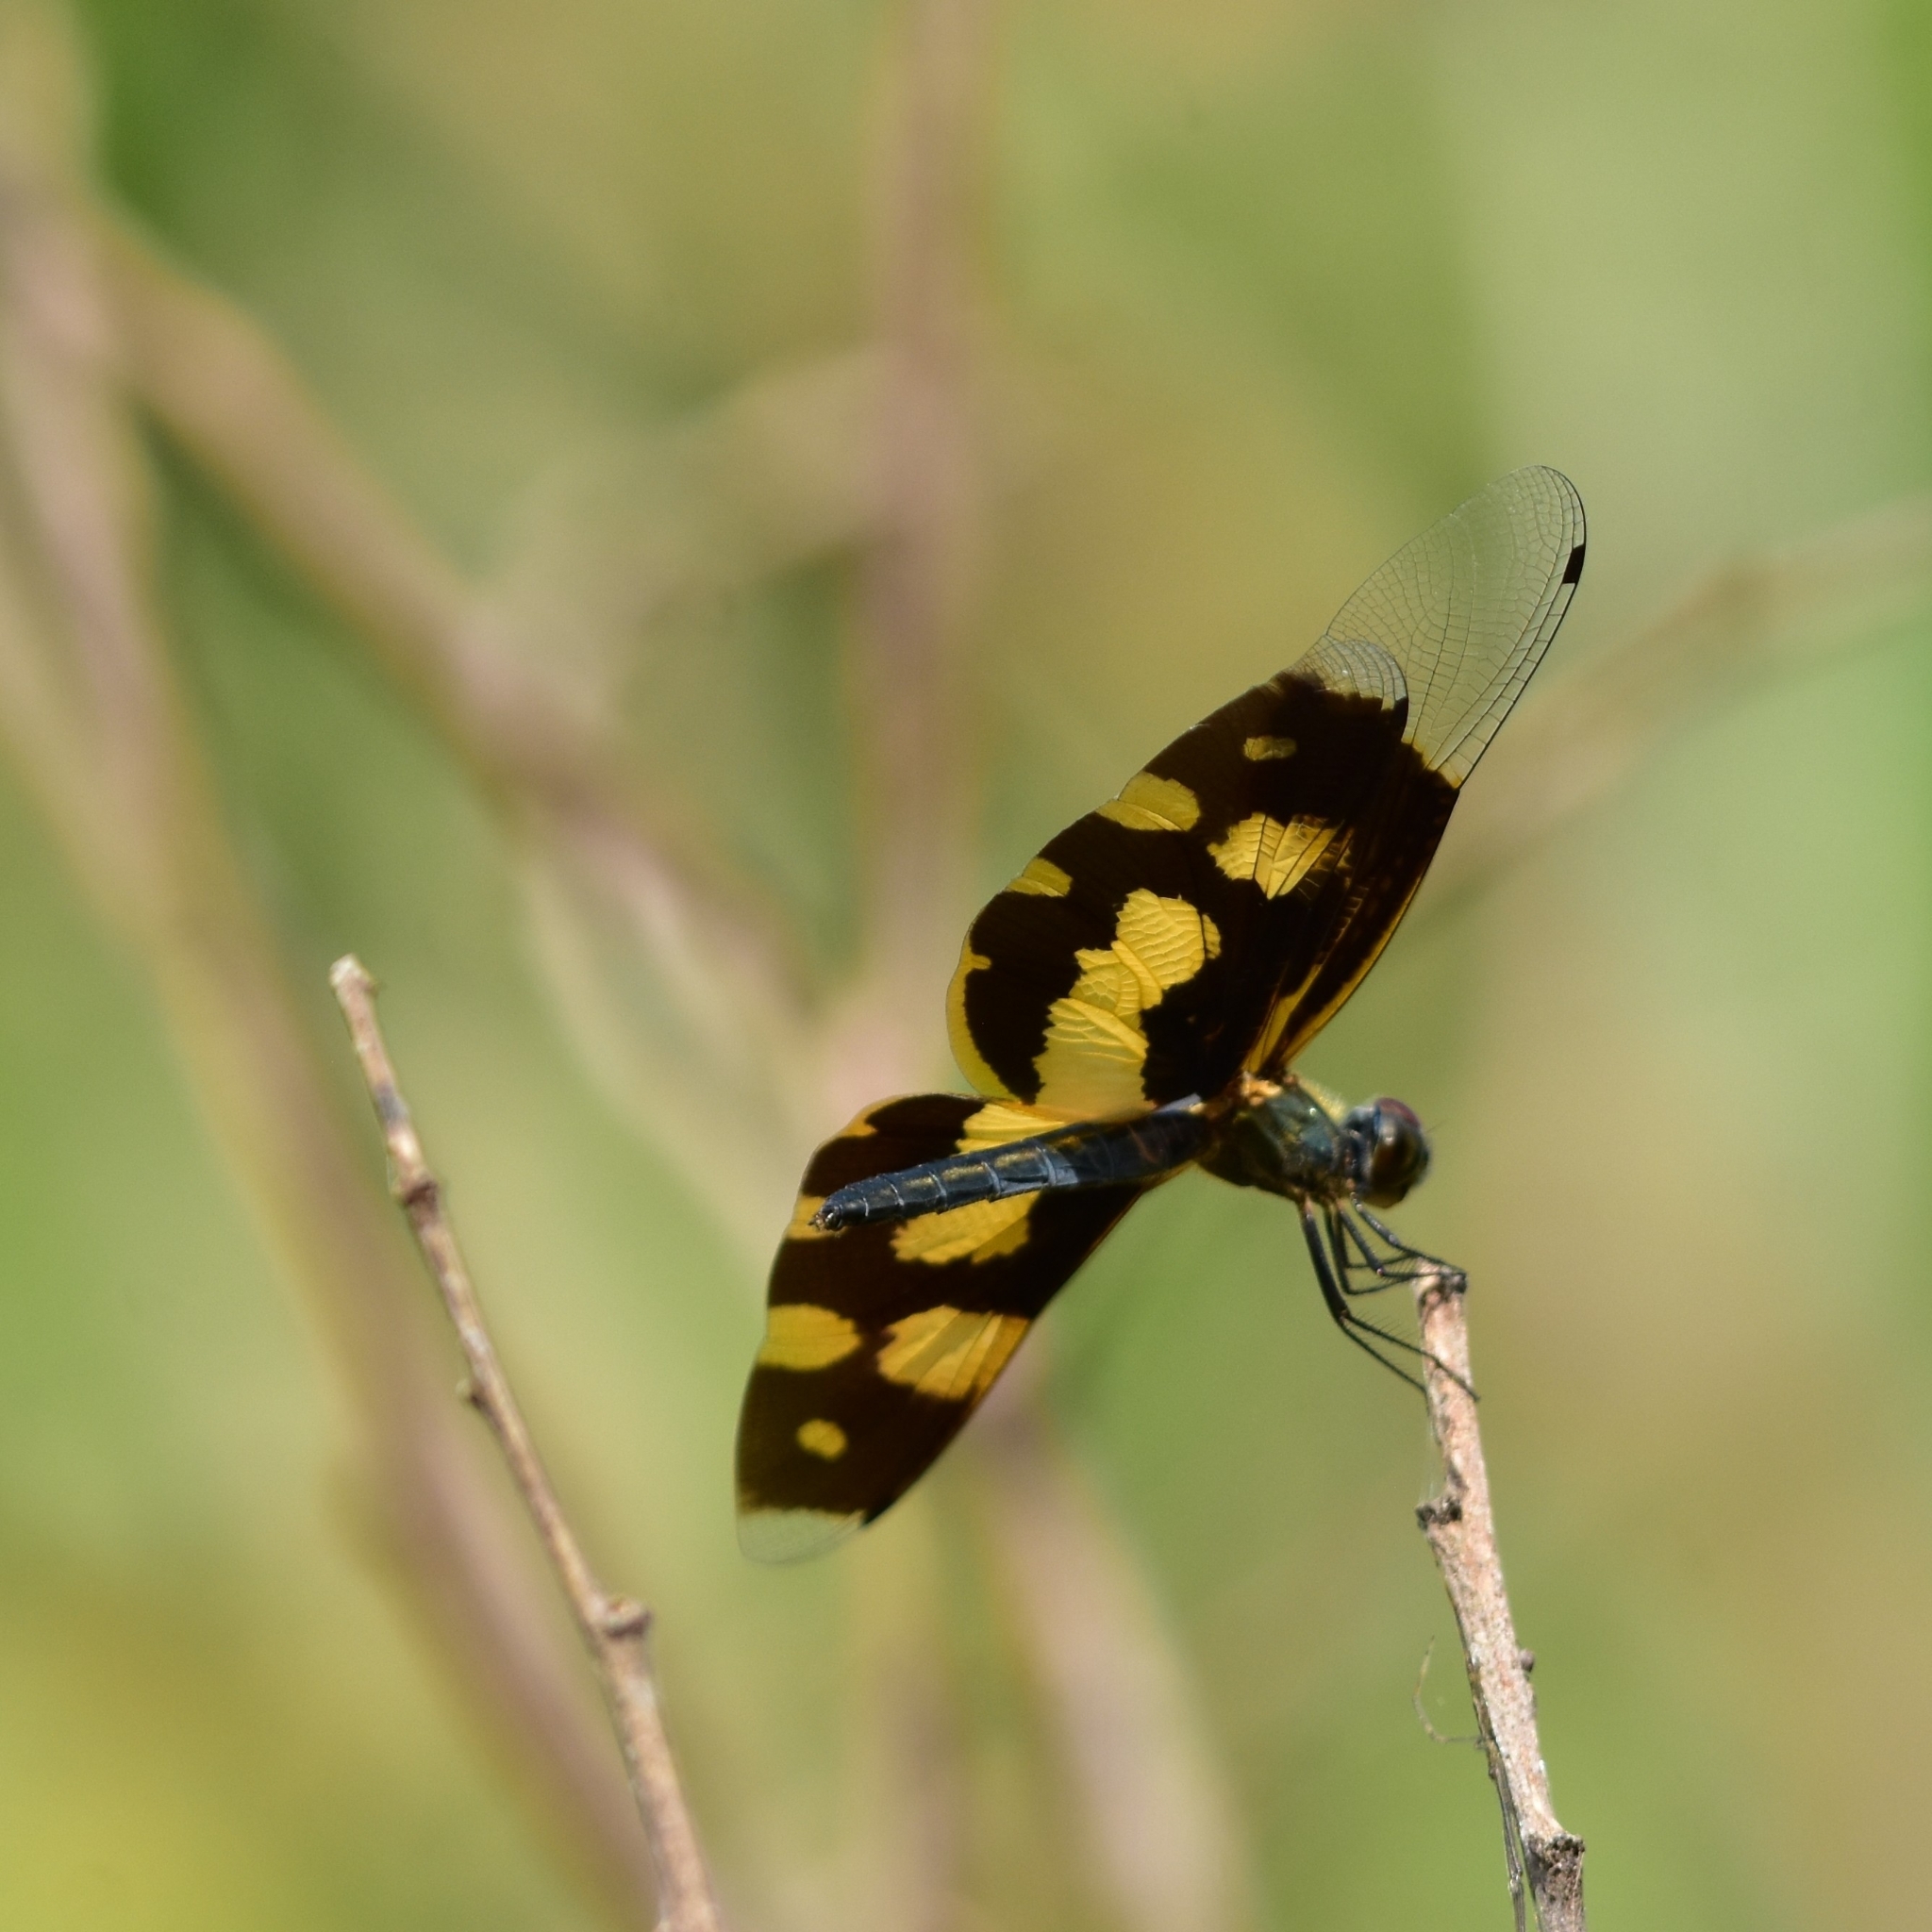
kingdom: Animalia
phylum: Arthropoda
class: Insecta
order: Odonata
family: Libellulidae
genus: Rhyothemis
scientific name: Rhyothemis variegata
